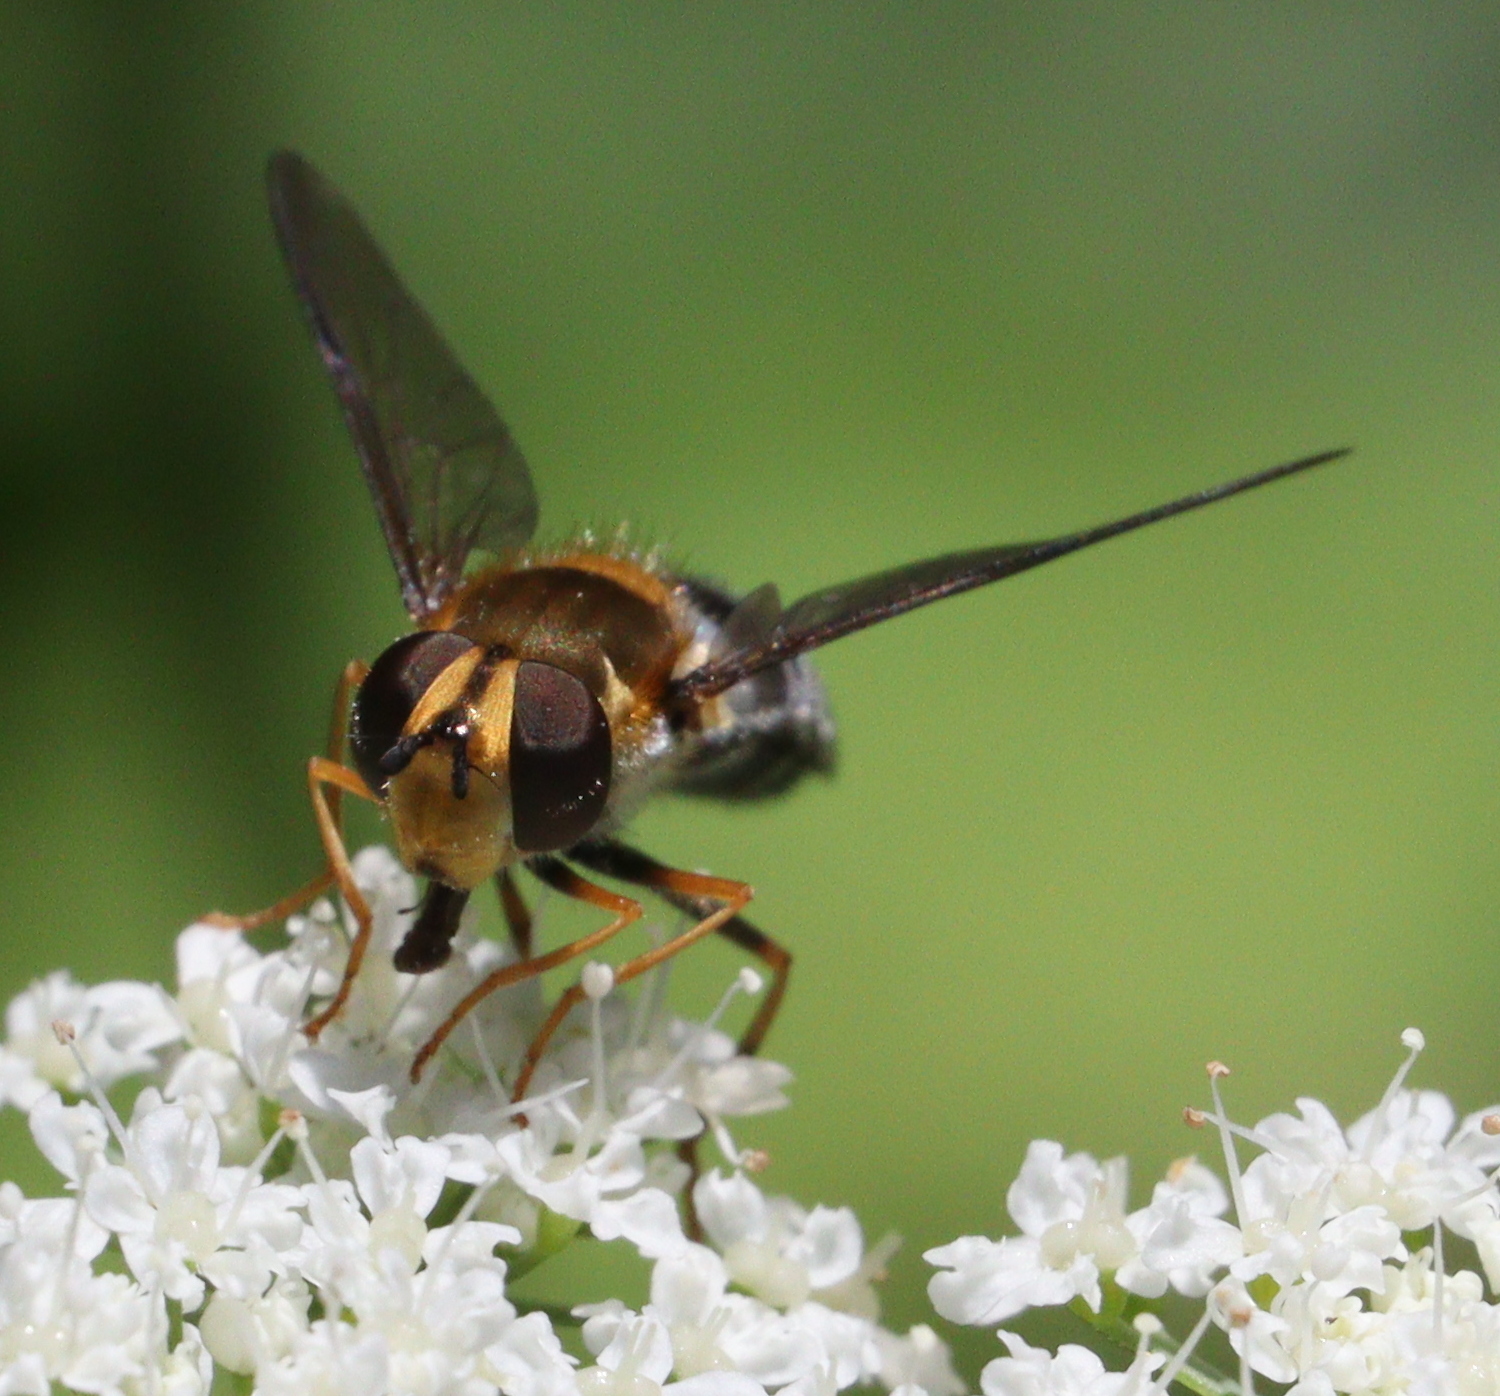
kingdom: Animalia
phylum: Arthropoda
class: Insecta
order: Diptera
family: Syrphidae
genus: Leucozona
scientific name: Leucozona glaucia
